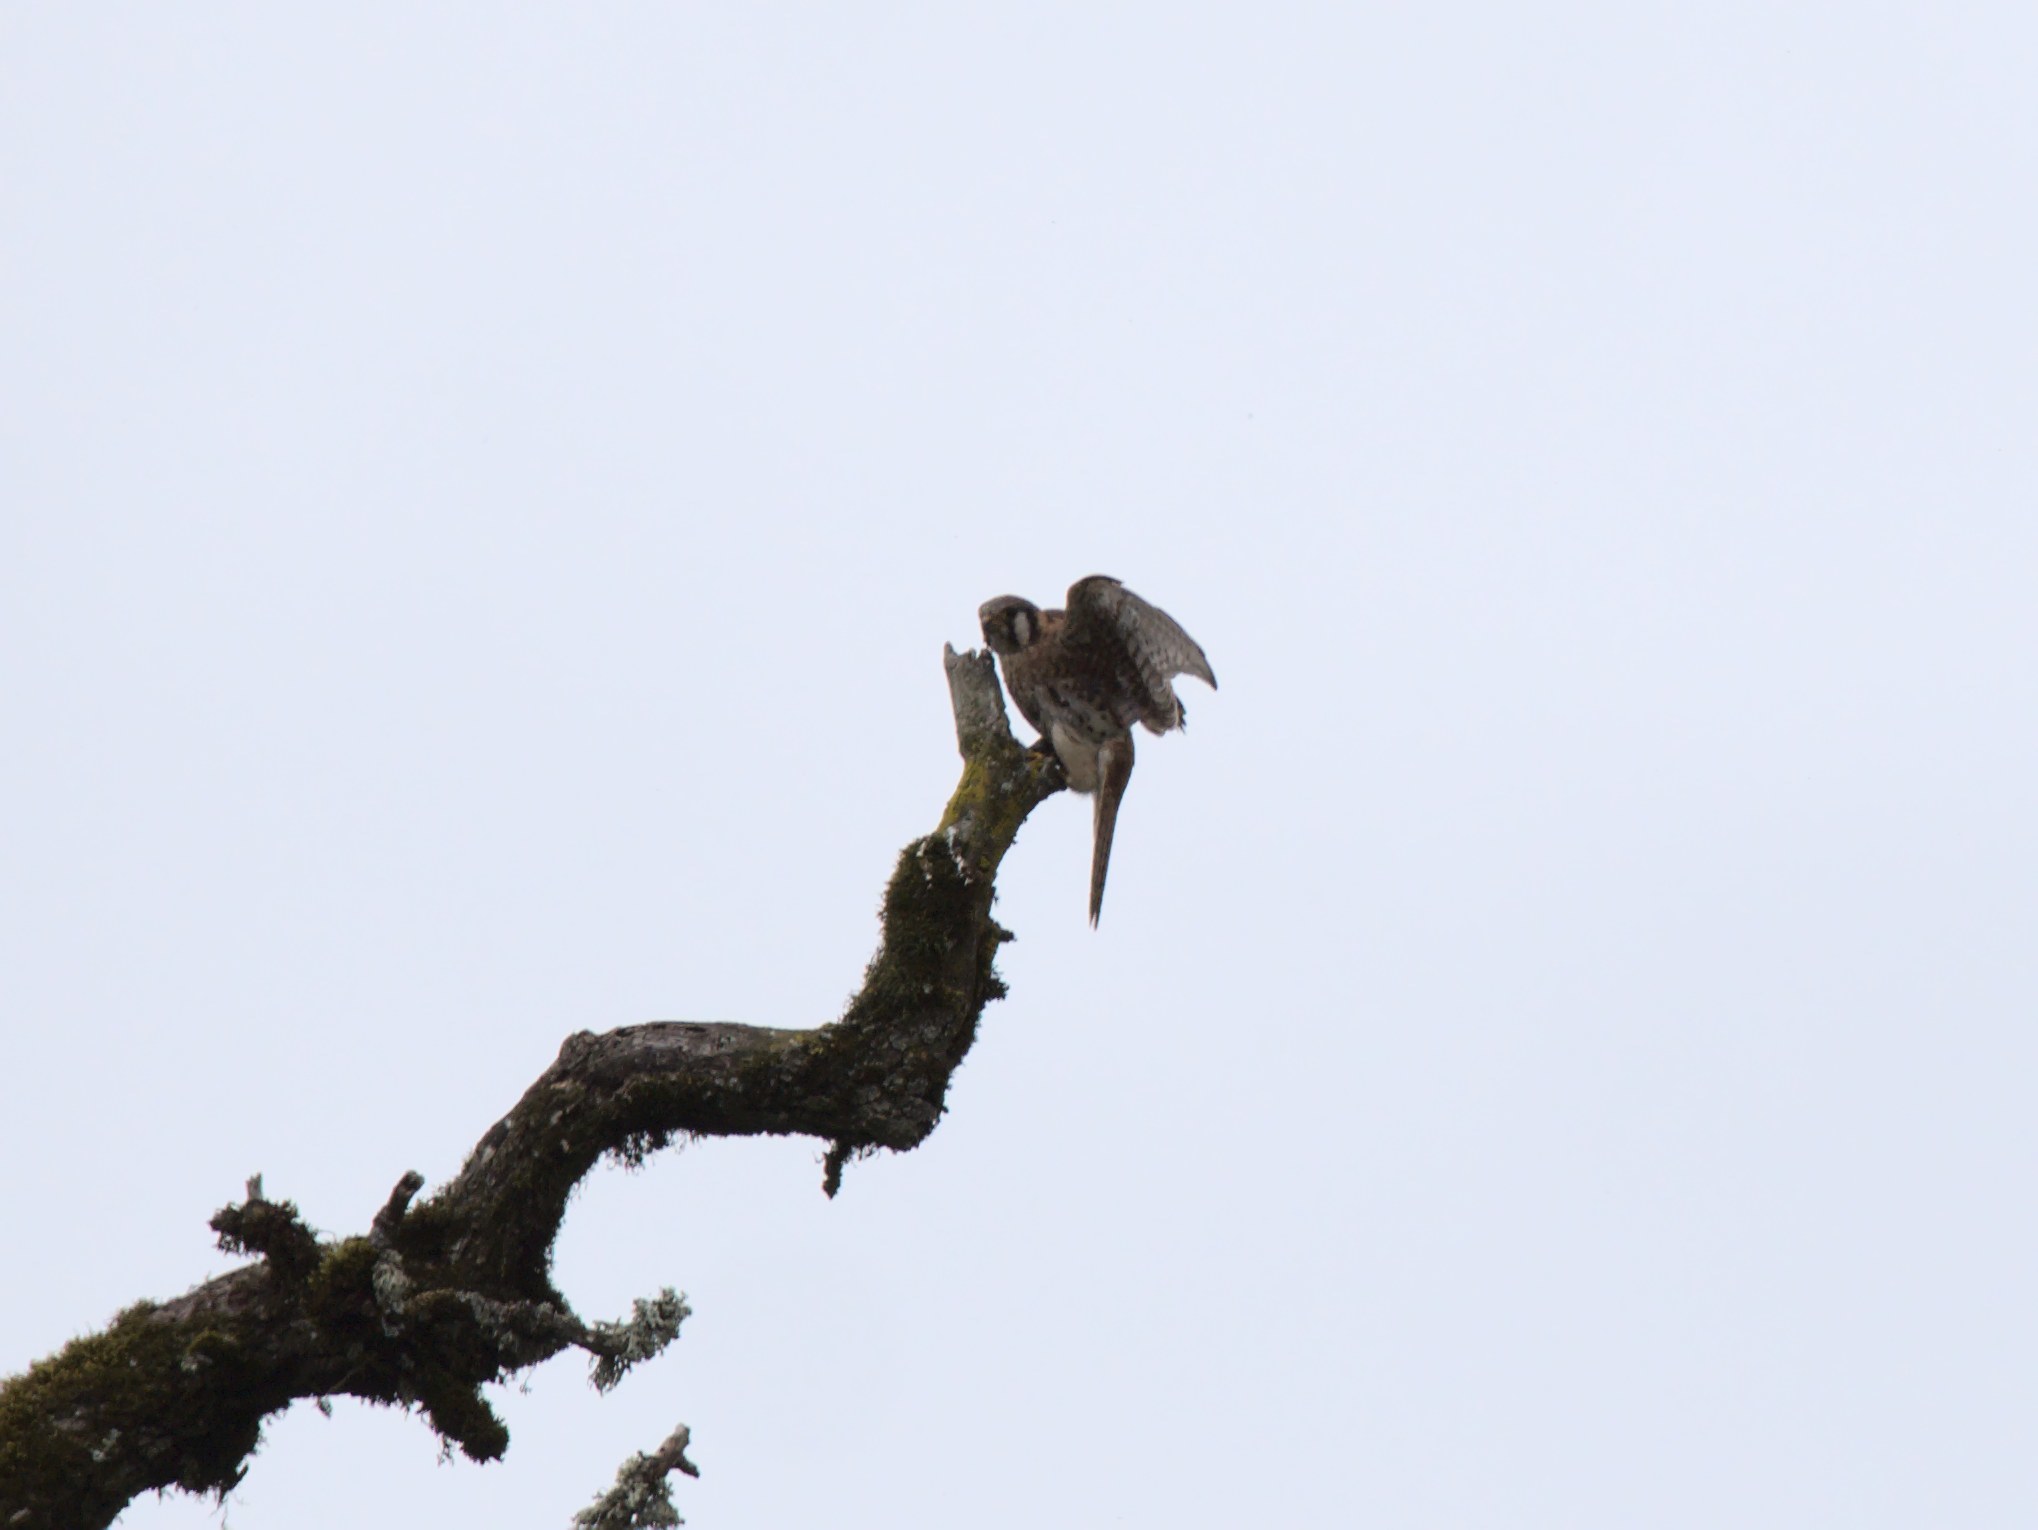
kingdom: Animalia
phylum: Chordata
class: Aves
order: Falconiformes
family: Falconidae
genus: Falco
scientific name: Falco sparverius
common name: American kestrel
